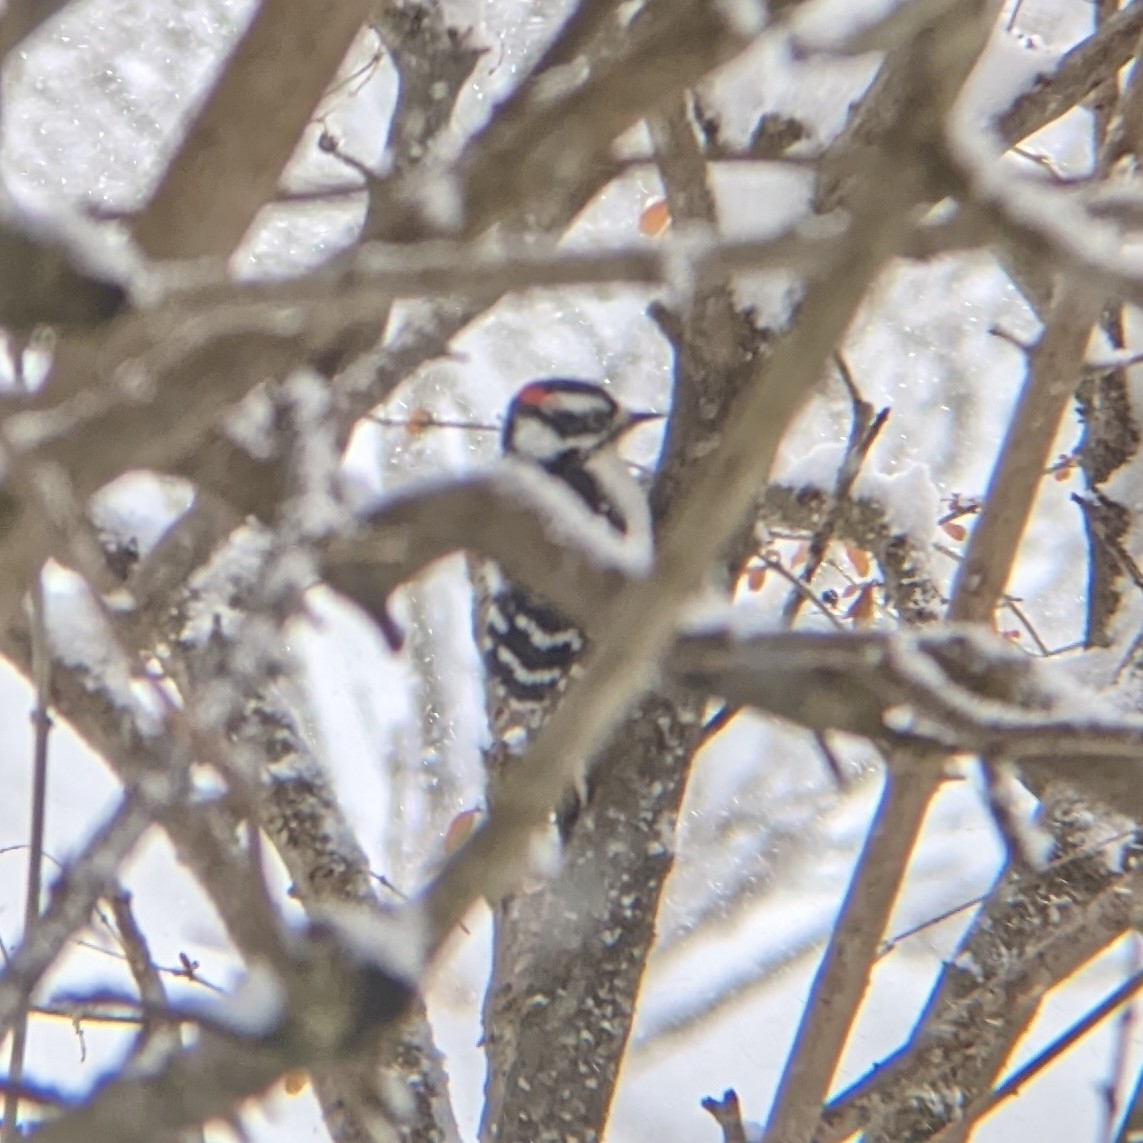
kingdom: Animalia
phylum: Chordata
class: Aves
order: Piciformes
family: Picidae
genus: Dryobates
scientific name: Dryobates pubescens
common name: Downy woodpecker
